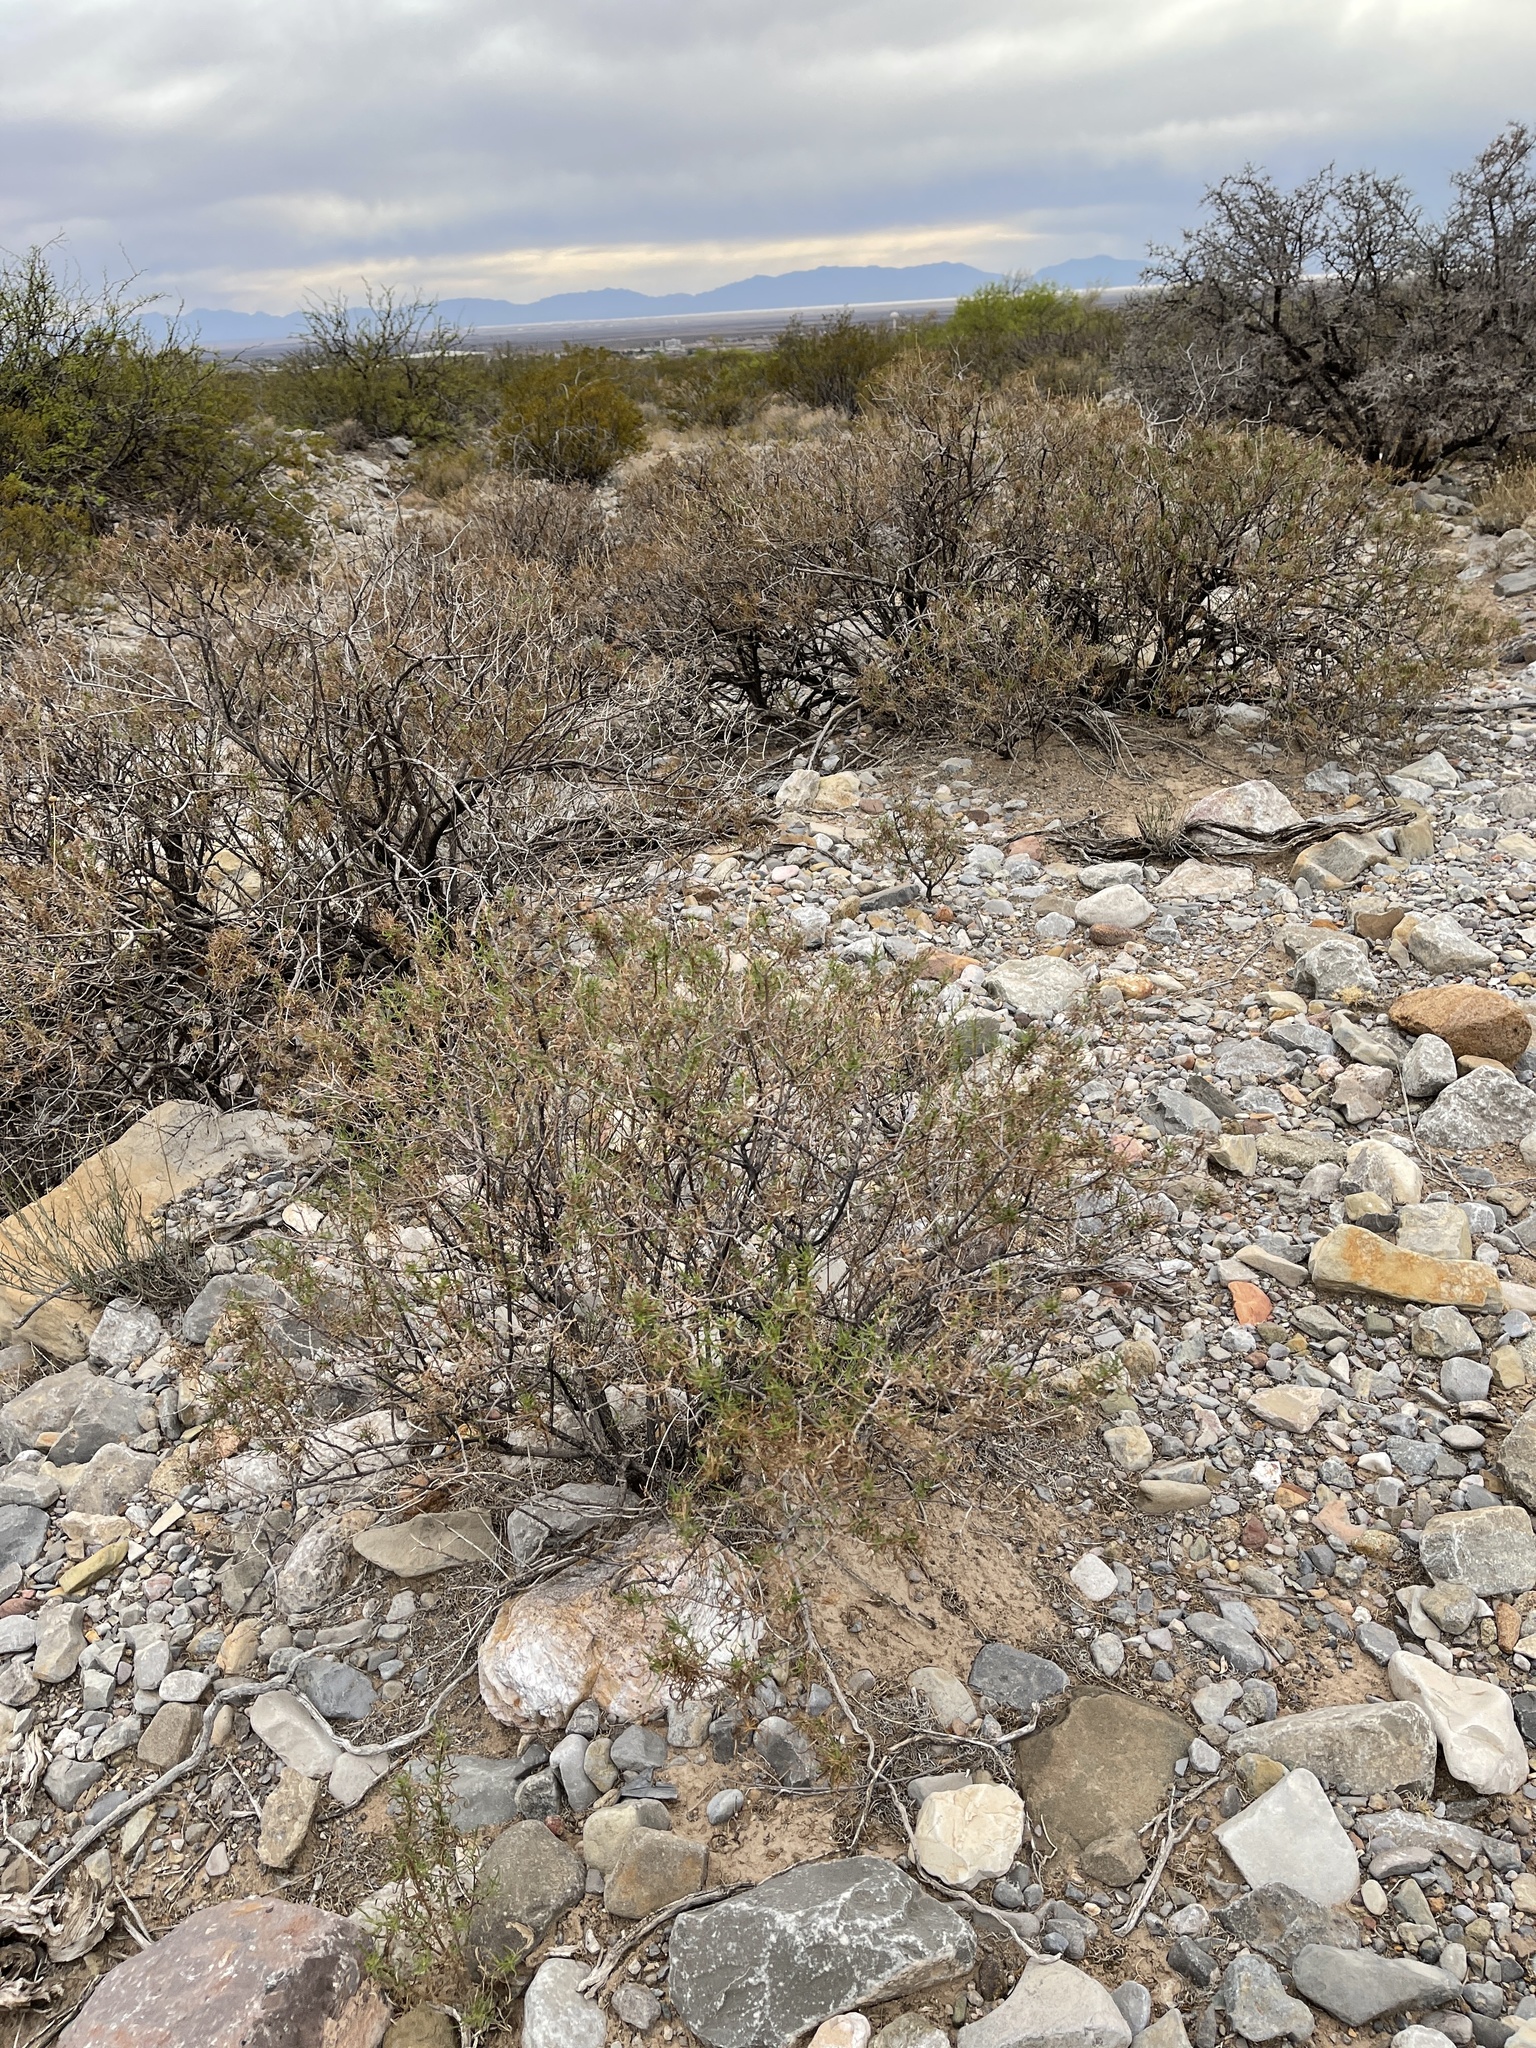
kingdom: Plantae
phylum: Tracheophyta
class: Magnoliopsida
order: Asterales
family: Asteraceae
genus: Sidneya
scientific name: Sidneya tenuifolia
